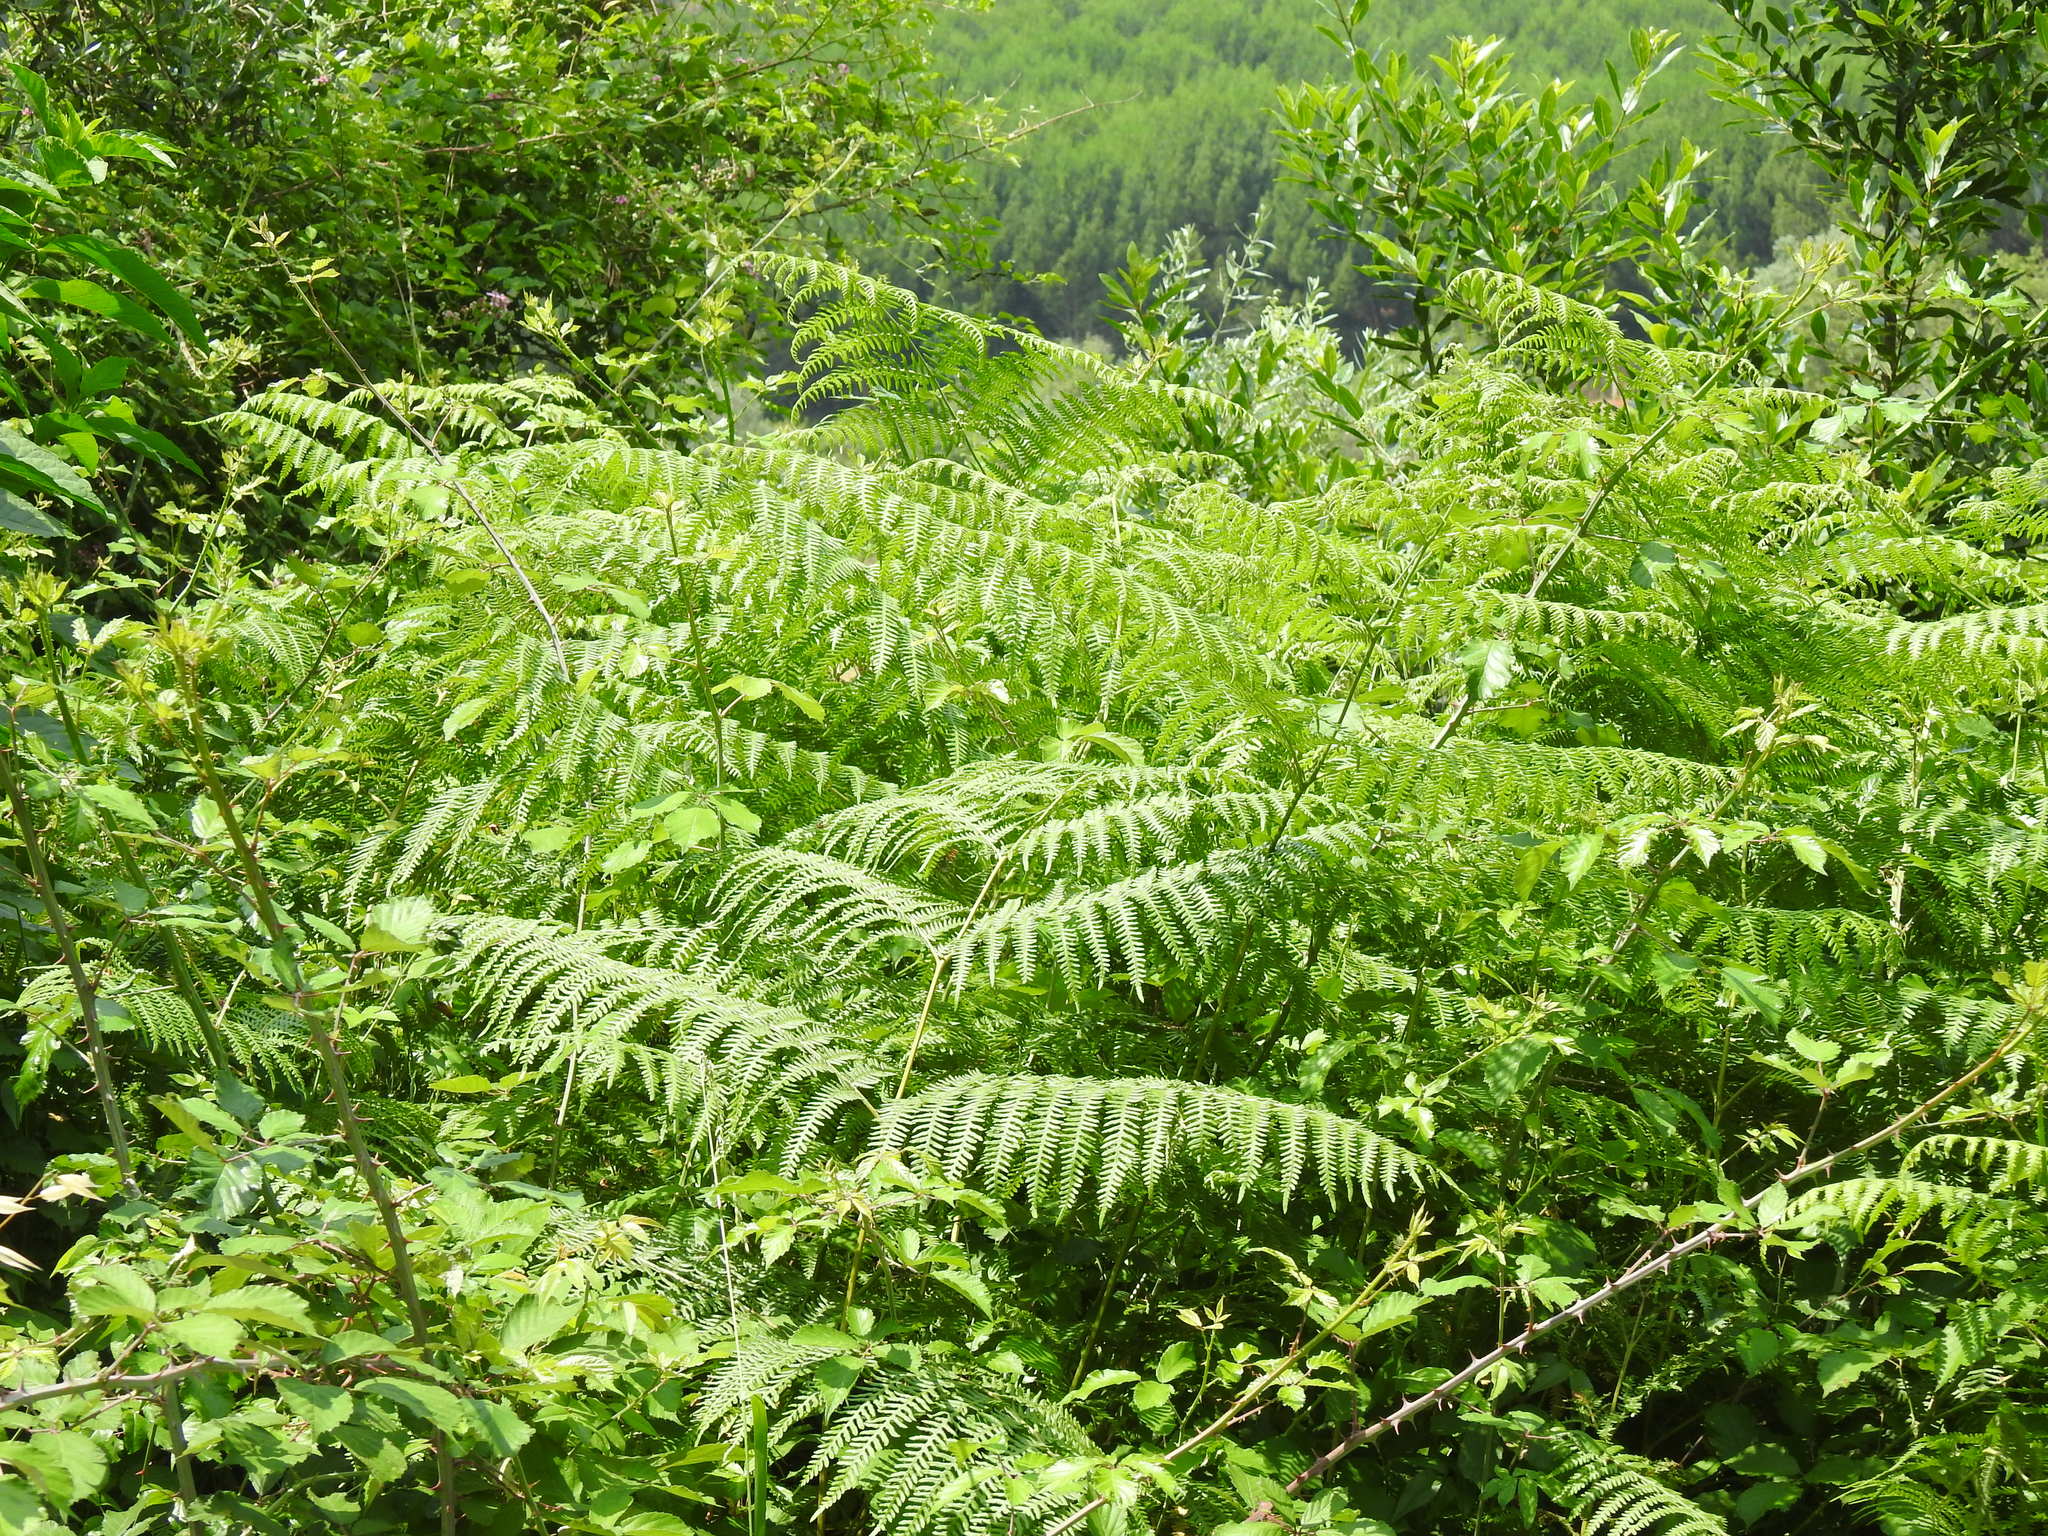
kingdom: Plantae
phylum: Tracheophyta
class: Polypodiopsida
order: Polypodiales
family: Dennstaedtiaceae
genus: Pteridium
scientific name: Pteridium aquilinum
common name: Bracken
